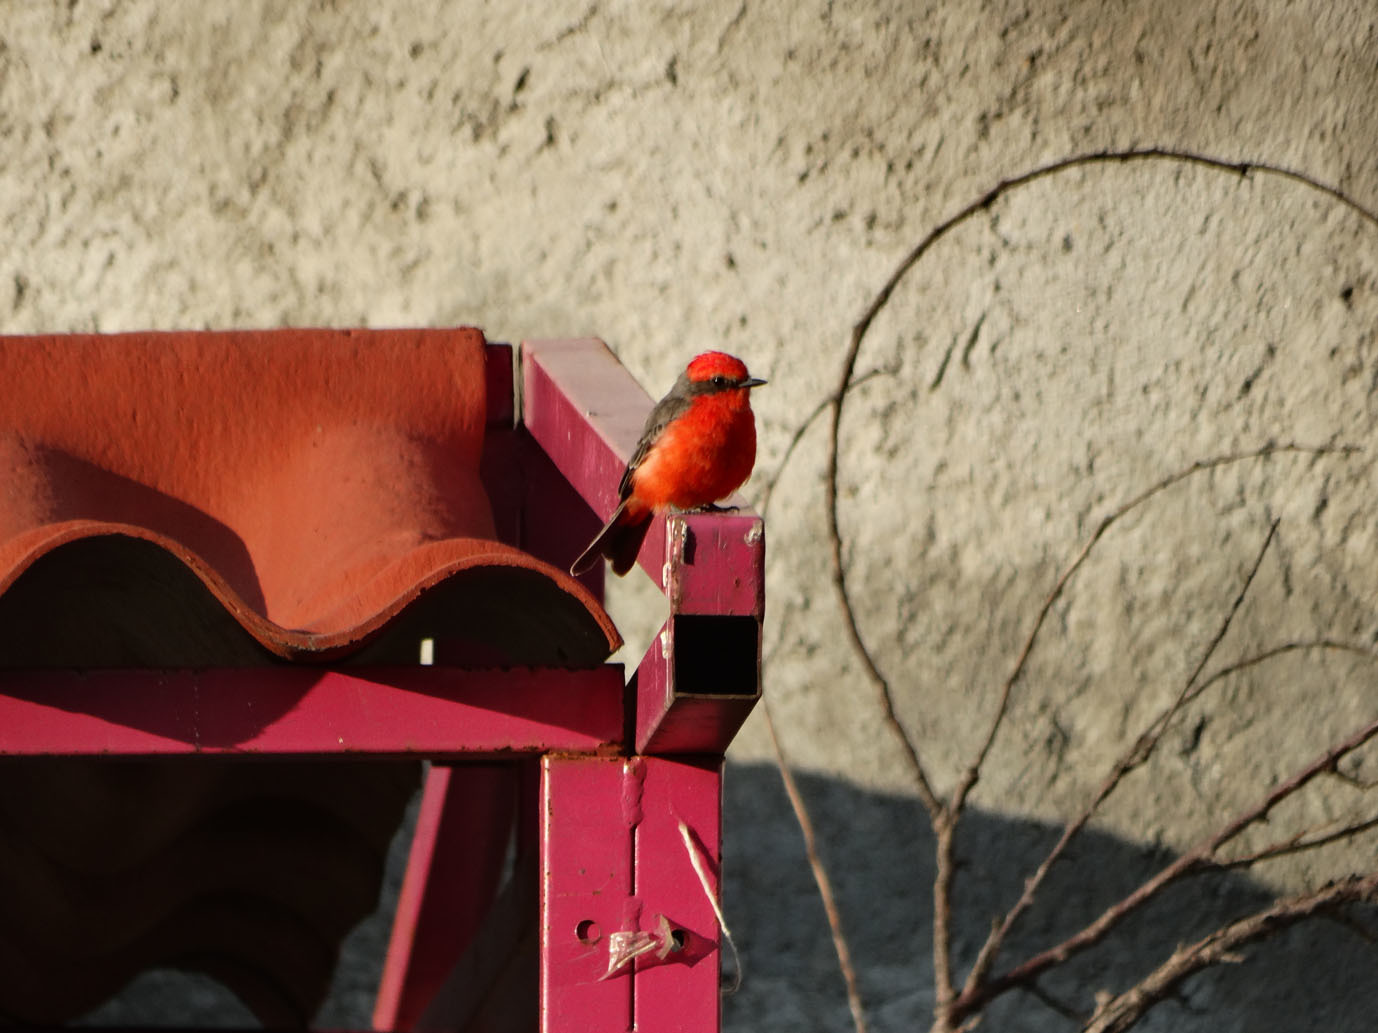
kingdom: Animalia
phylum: Chordata
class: Aves
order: Passeriformes
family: Tyrannidae
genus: Pyrocephalus
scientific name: Pyrocephalus rubinus
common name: Vermilion flycatcher
